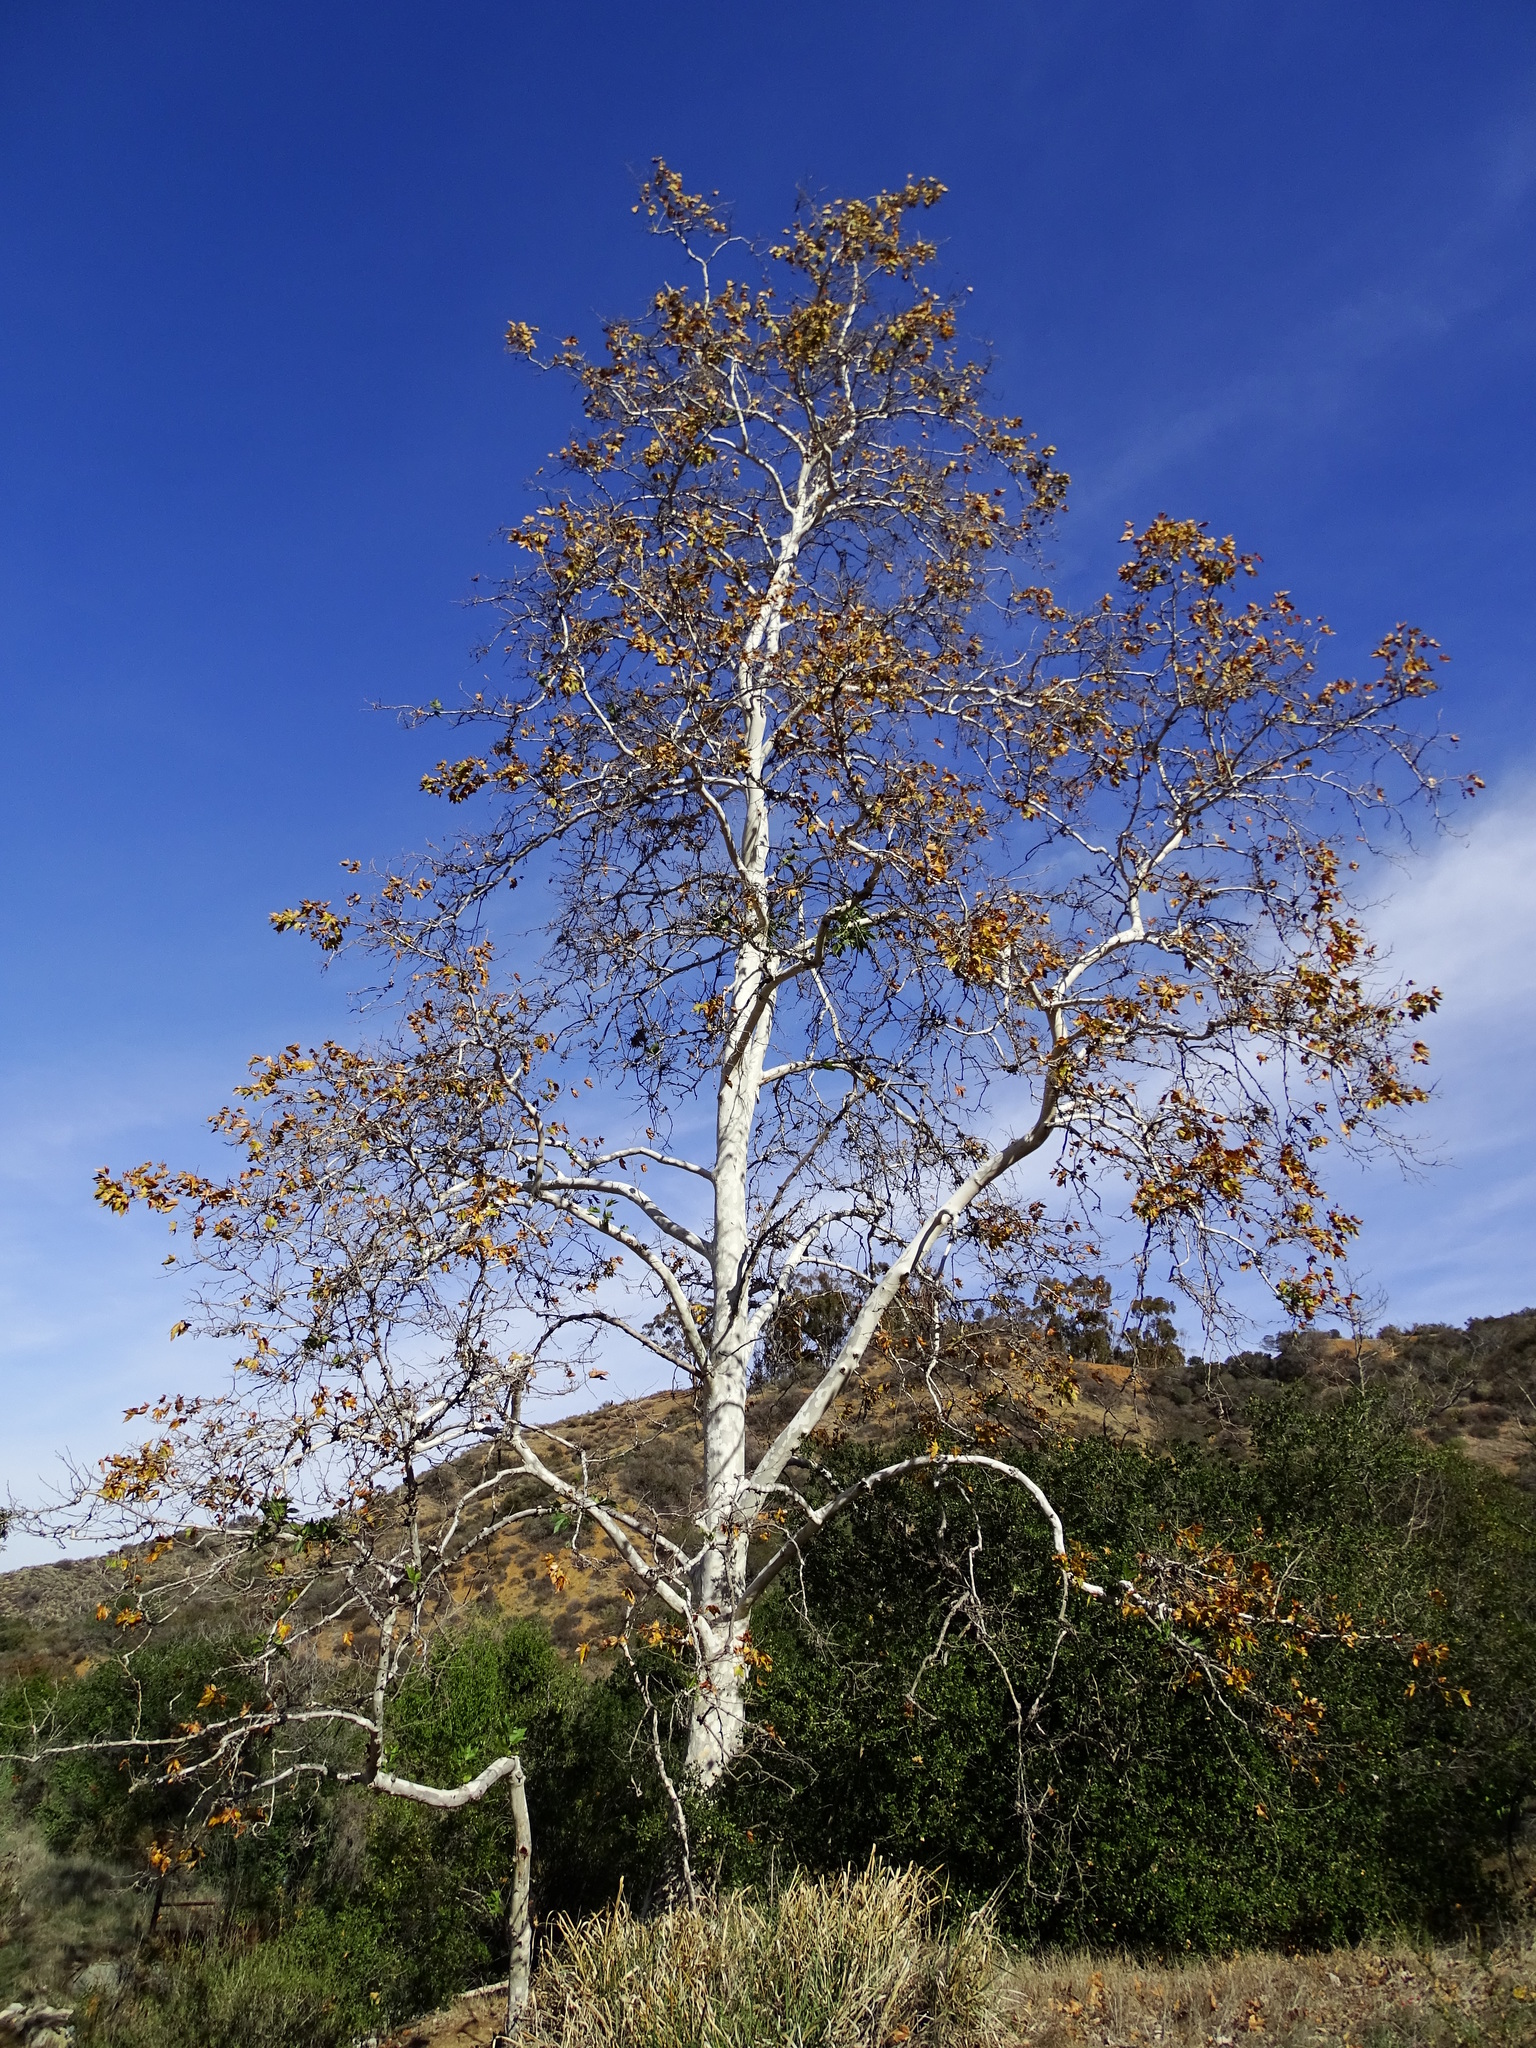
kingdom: Plantae
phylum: Tracheophyta
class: Magnoliopsida
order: Proteales
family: Platanaceae
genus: Platanus
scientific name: Platanus racemosa
